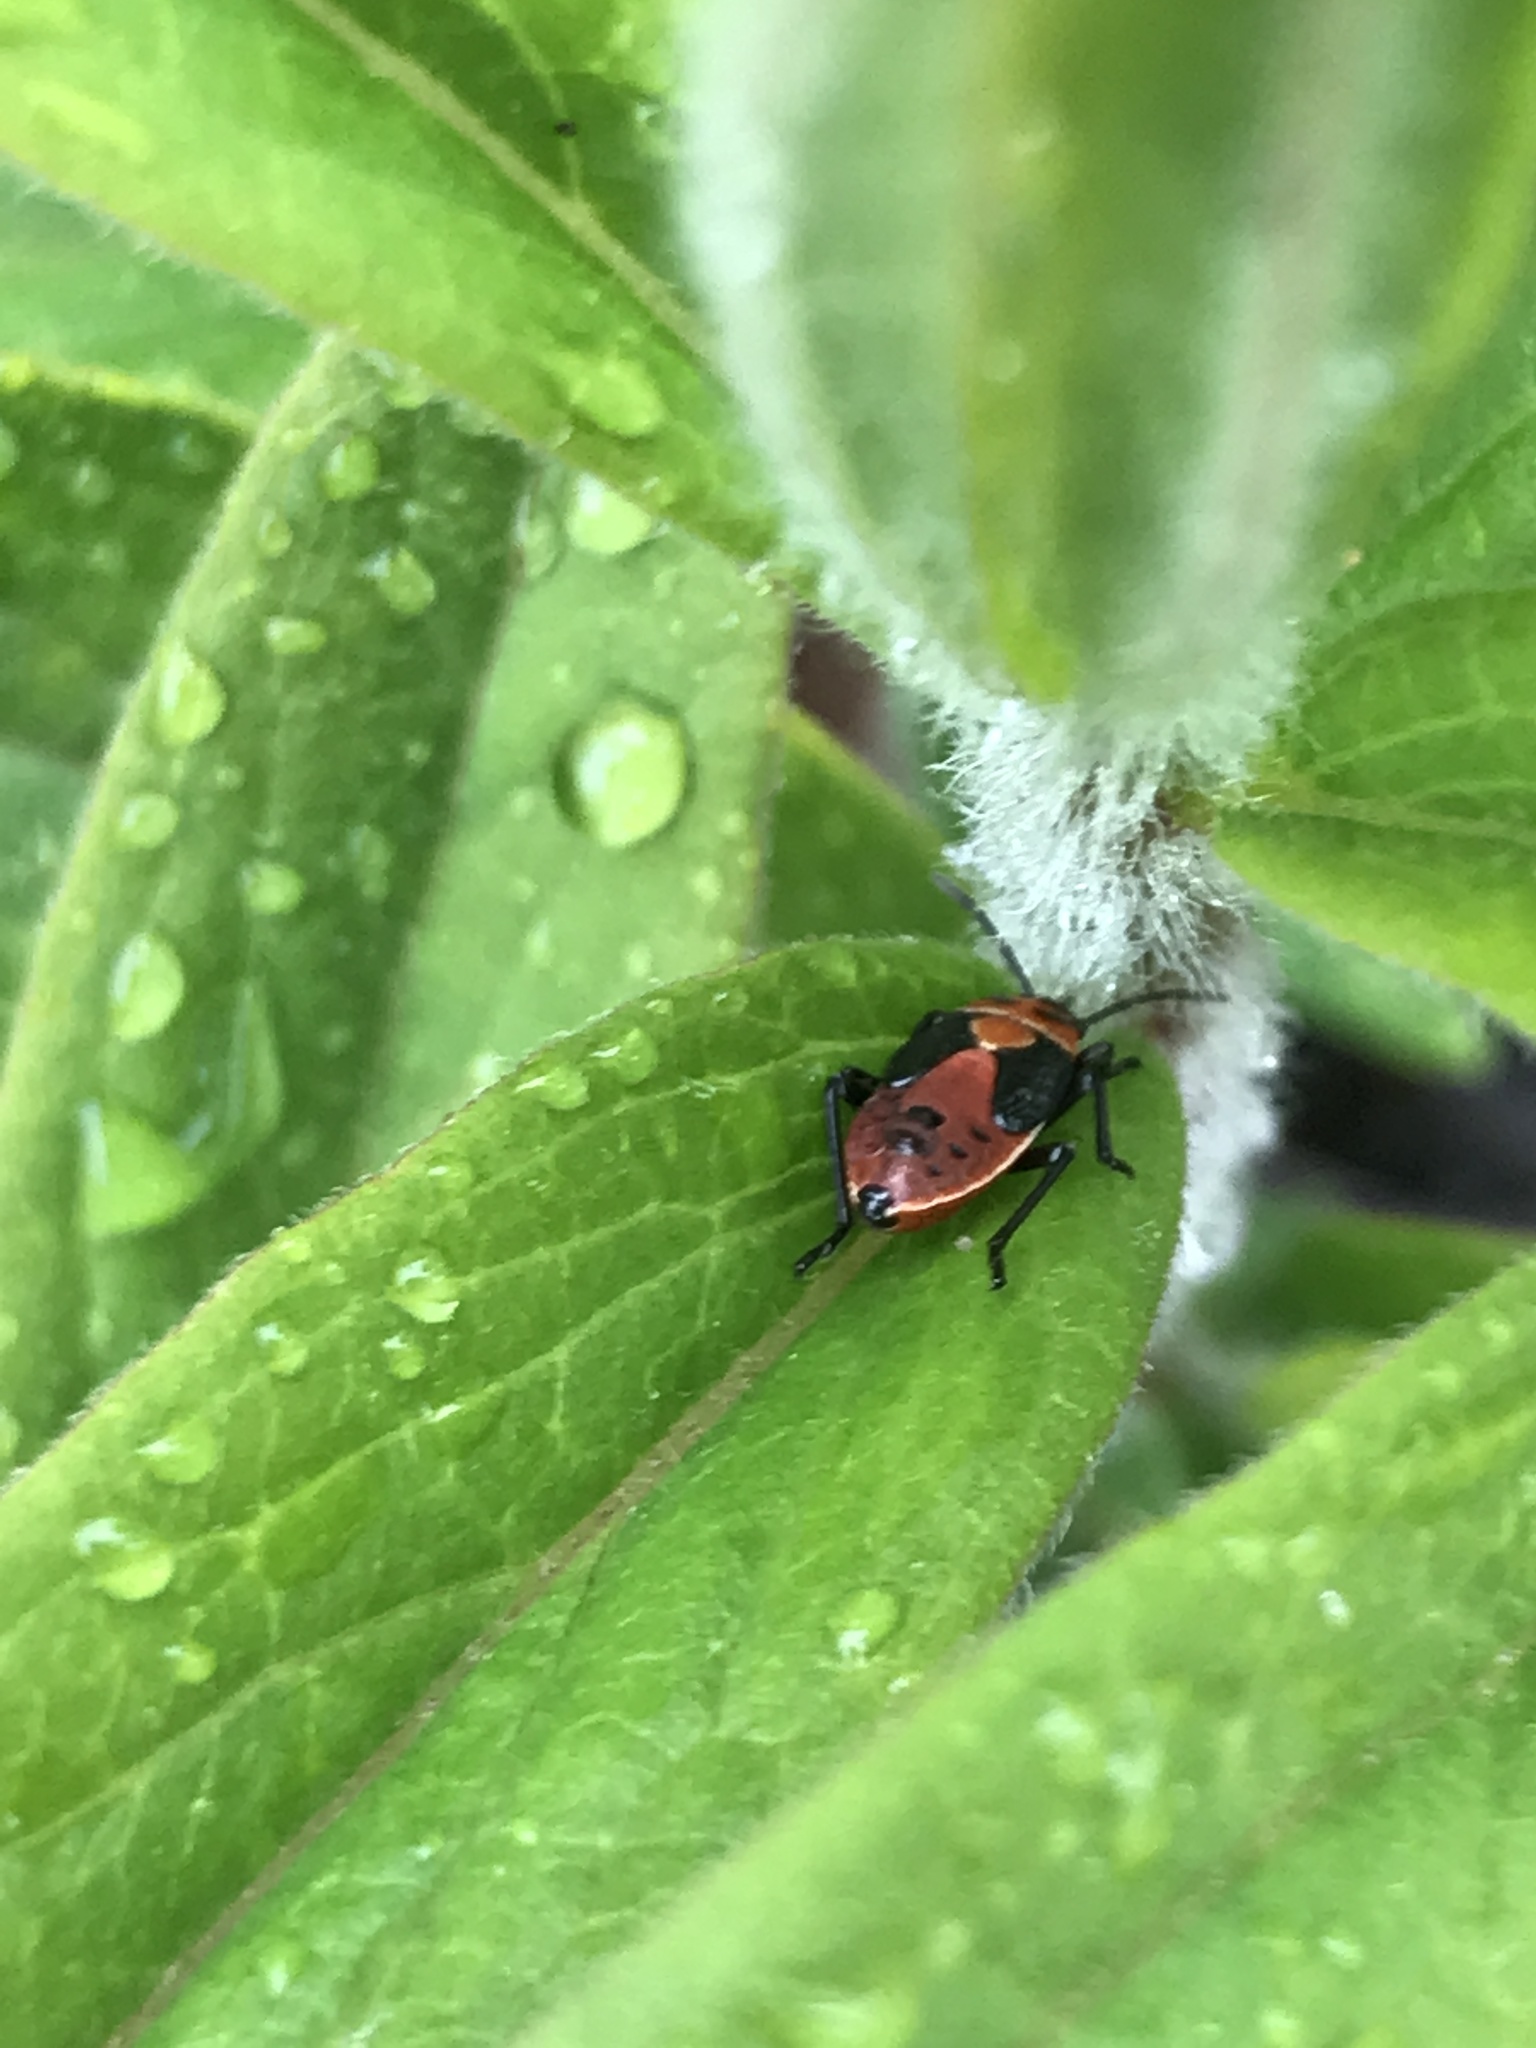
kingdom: Animalia
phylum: Arthropoda
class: Insecta
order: Hemiptera
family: Lygaeidae
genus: Lygaeus
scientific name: Lygaeus kalmii
